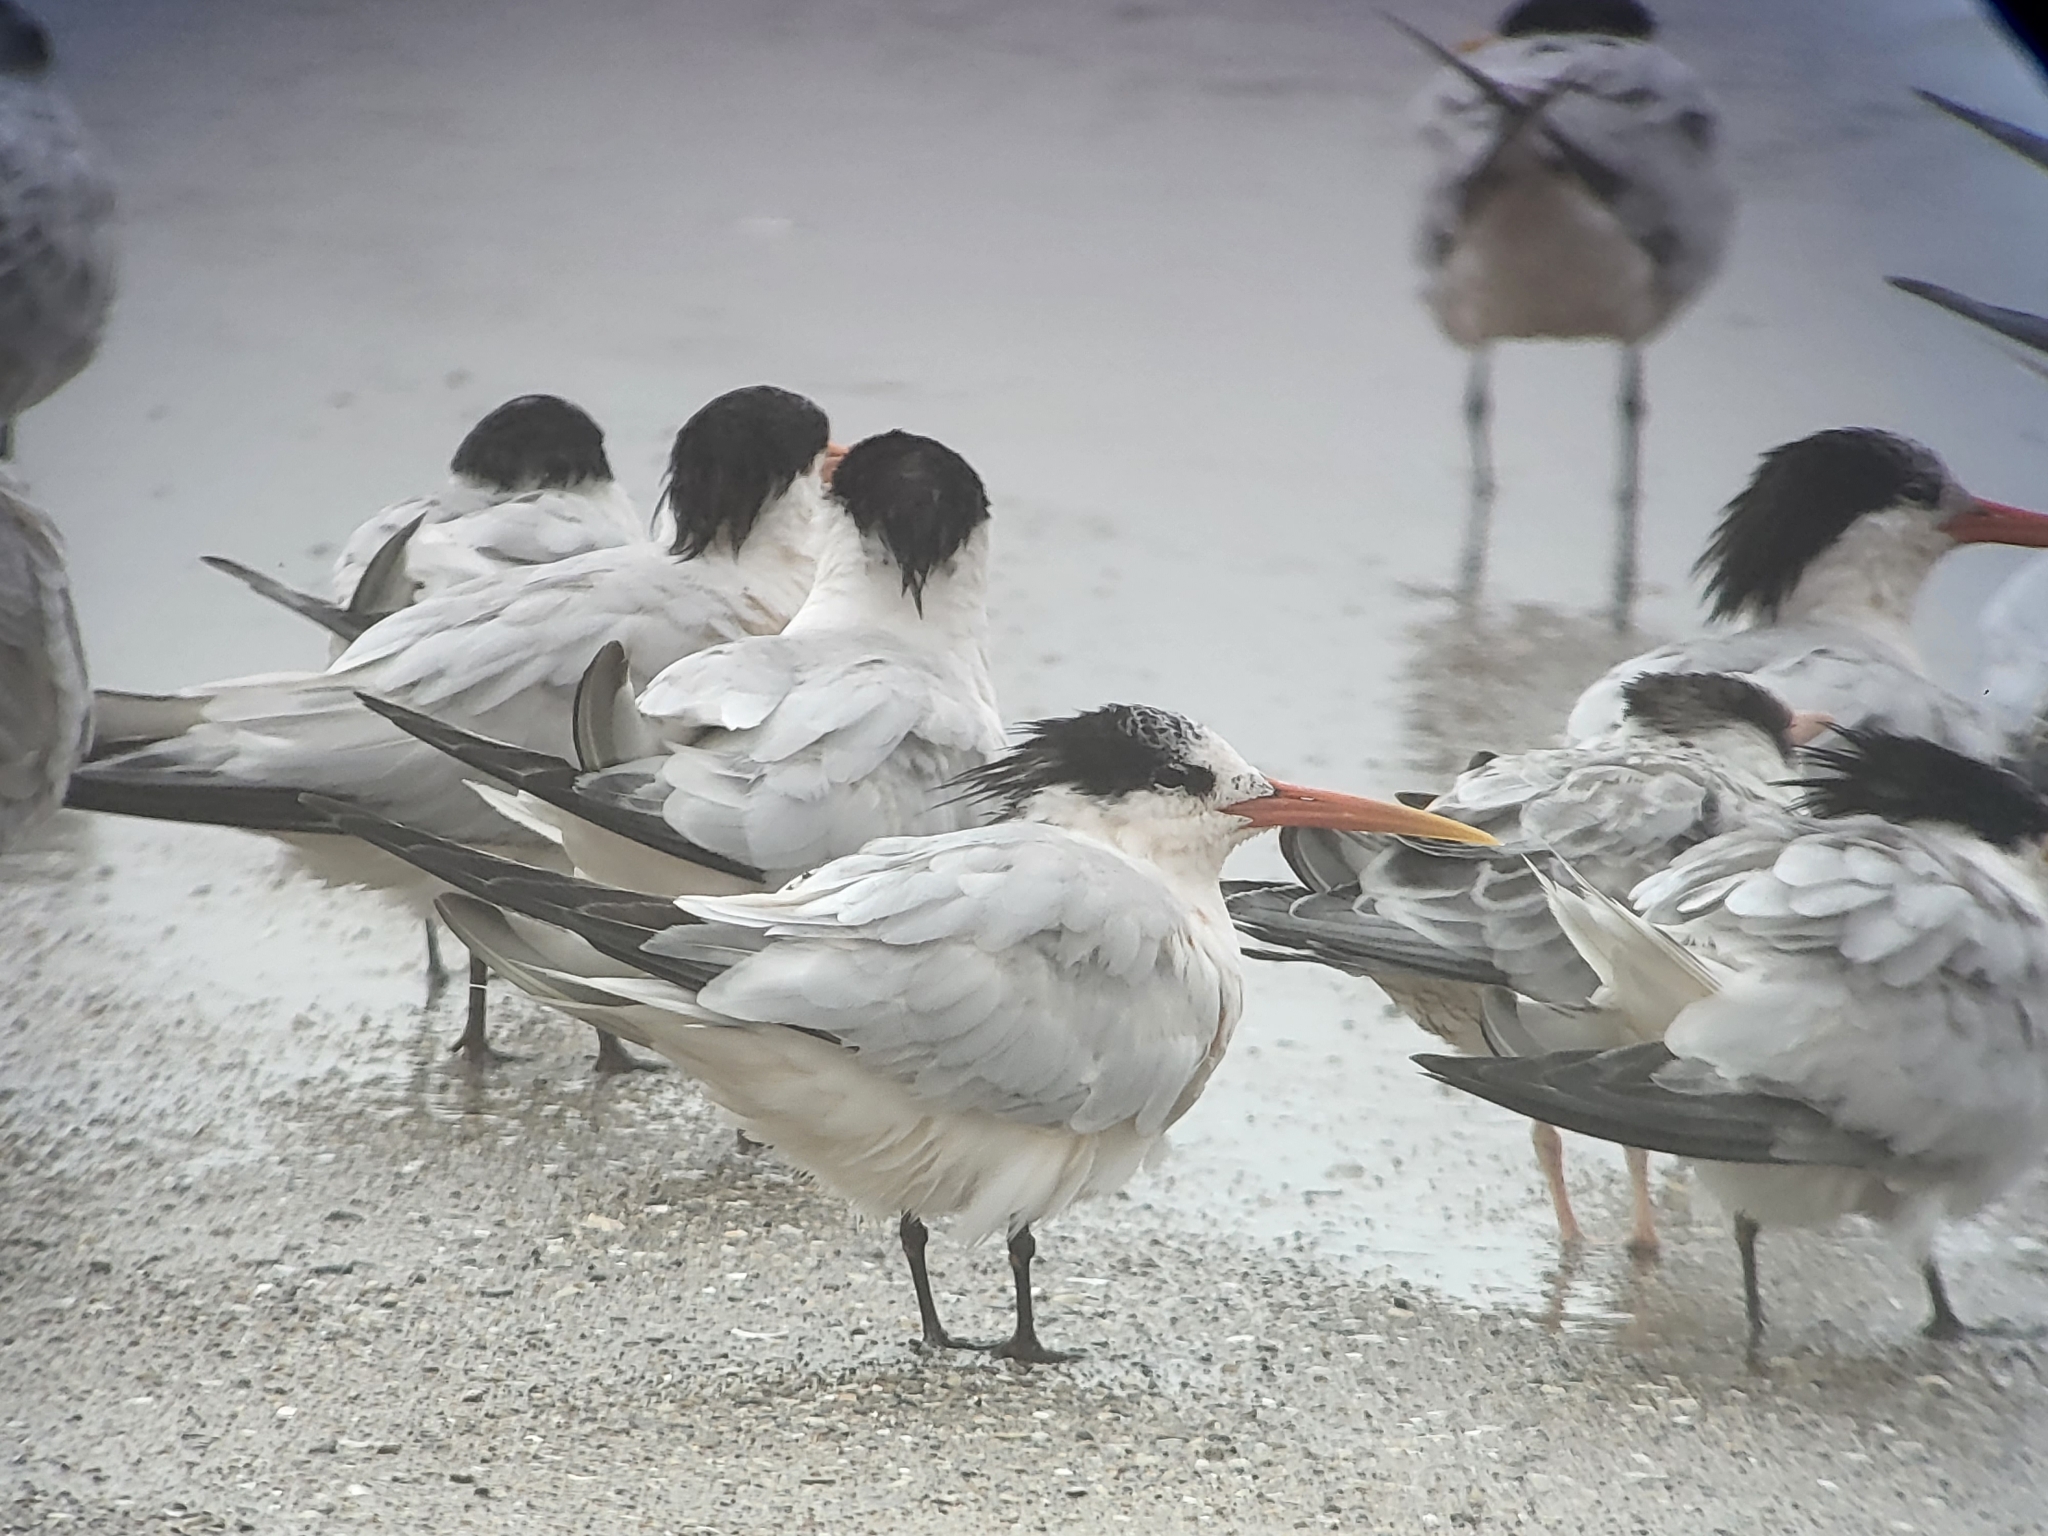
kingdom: Animalia
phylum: Chordata
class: Aves
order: Charadriiformes
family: Laridae
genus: Thalasseus
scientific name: Thalasseus elegans
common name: Elegant tern
